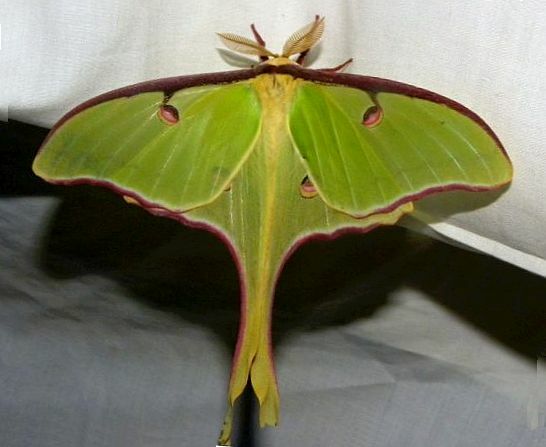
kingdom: Animalia
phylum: Arthropoda
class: Insecta
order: Lepidoptera
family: Saturniidae
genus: Actias
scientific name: Actias luna
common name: Luna moth
